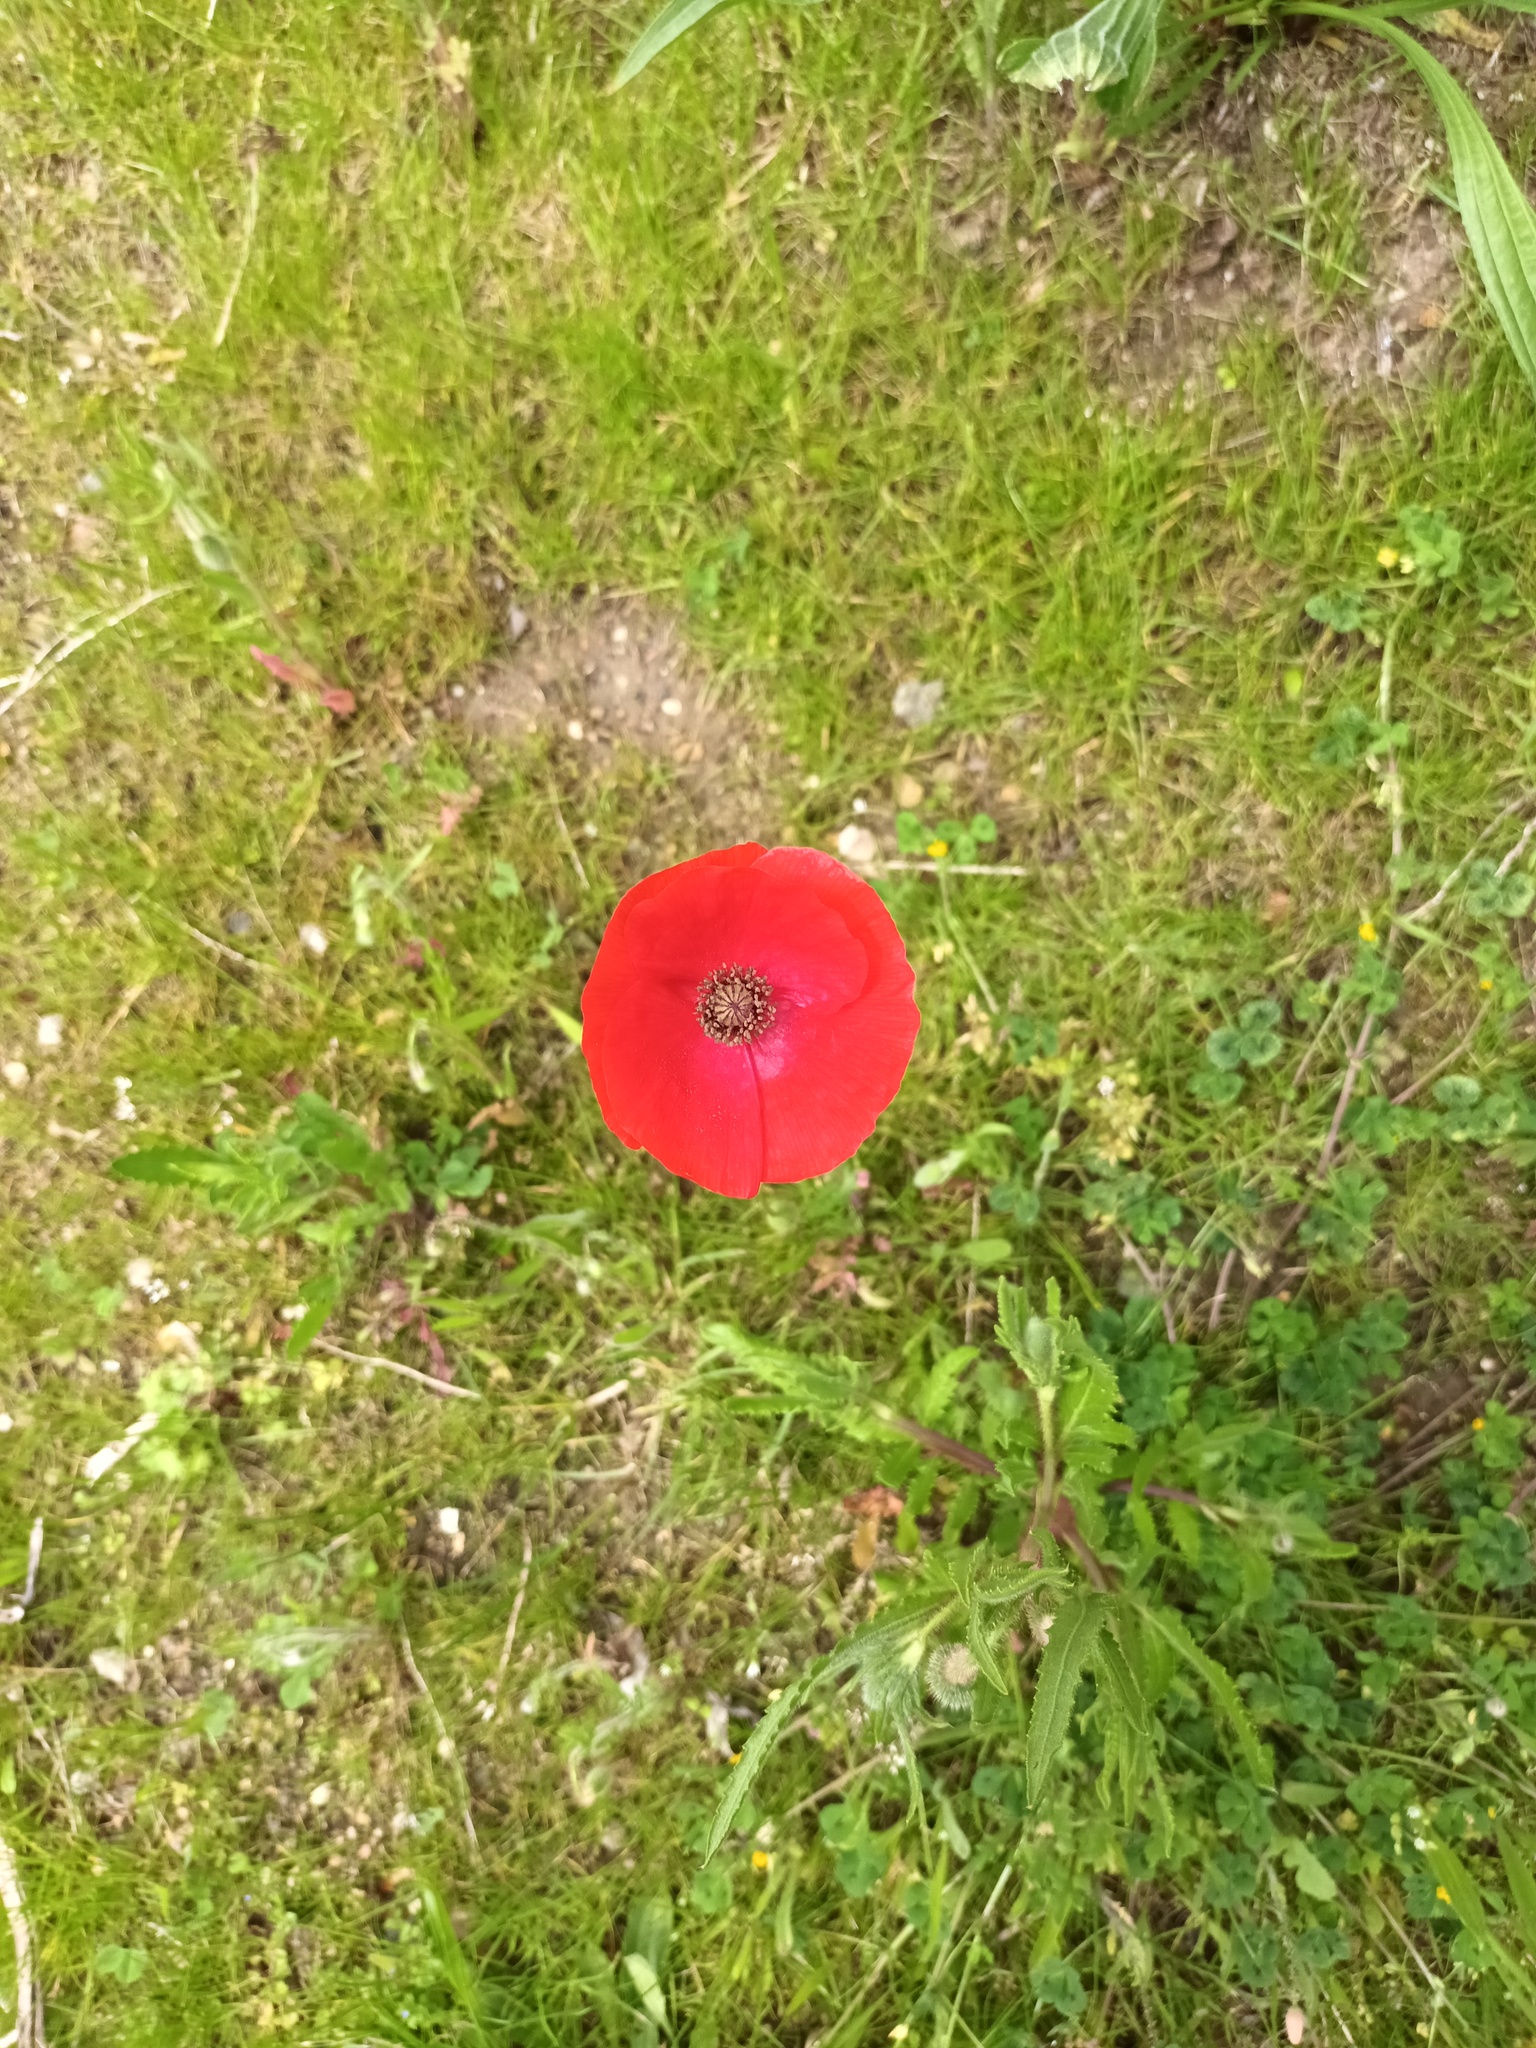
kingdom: Plantae
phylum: Tracheophyta
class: Magnoliopsida
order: Ranunculales
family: Papaveraceae
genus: Papaver
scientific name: Papaver rhoeas
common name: Corn poppy
